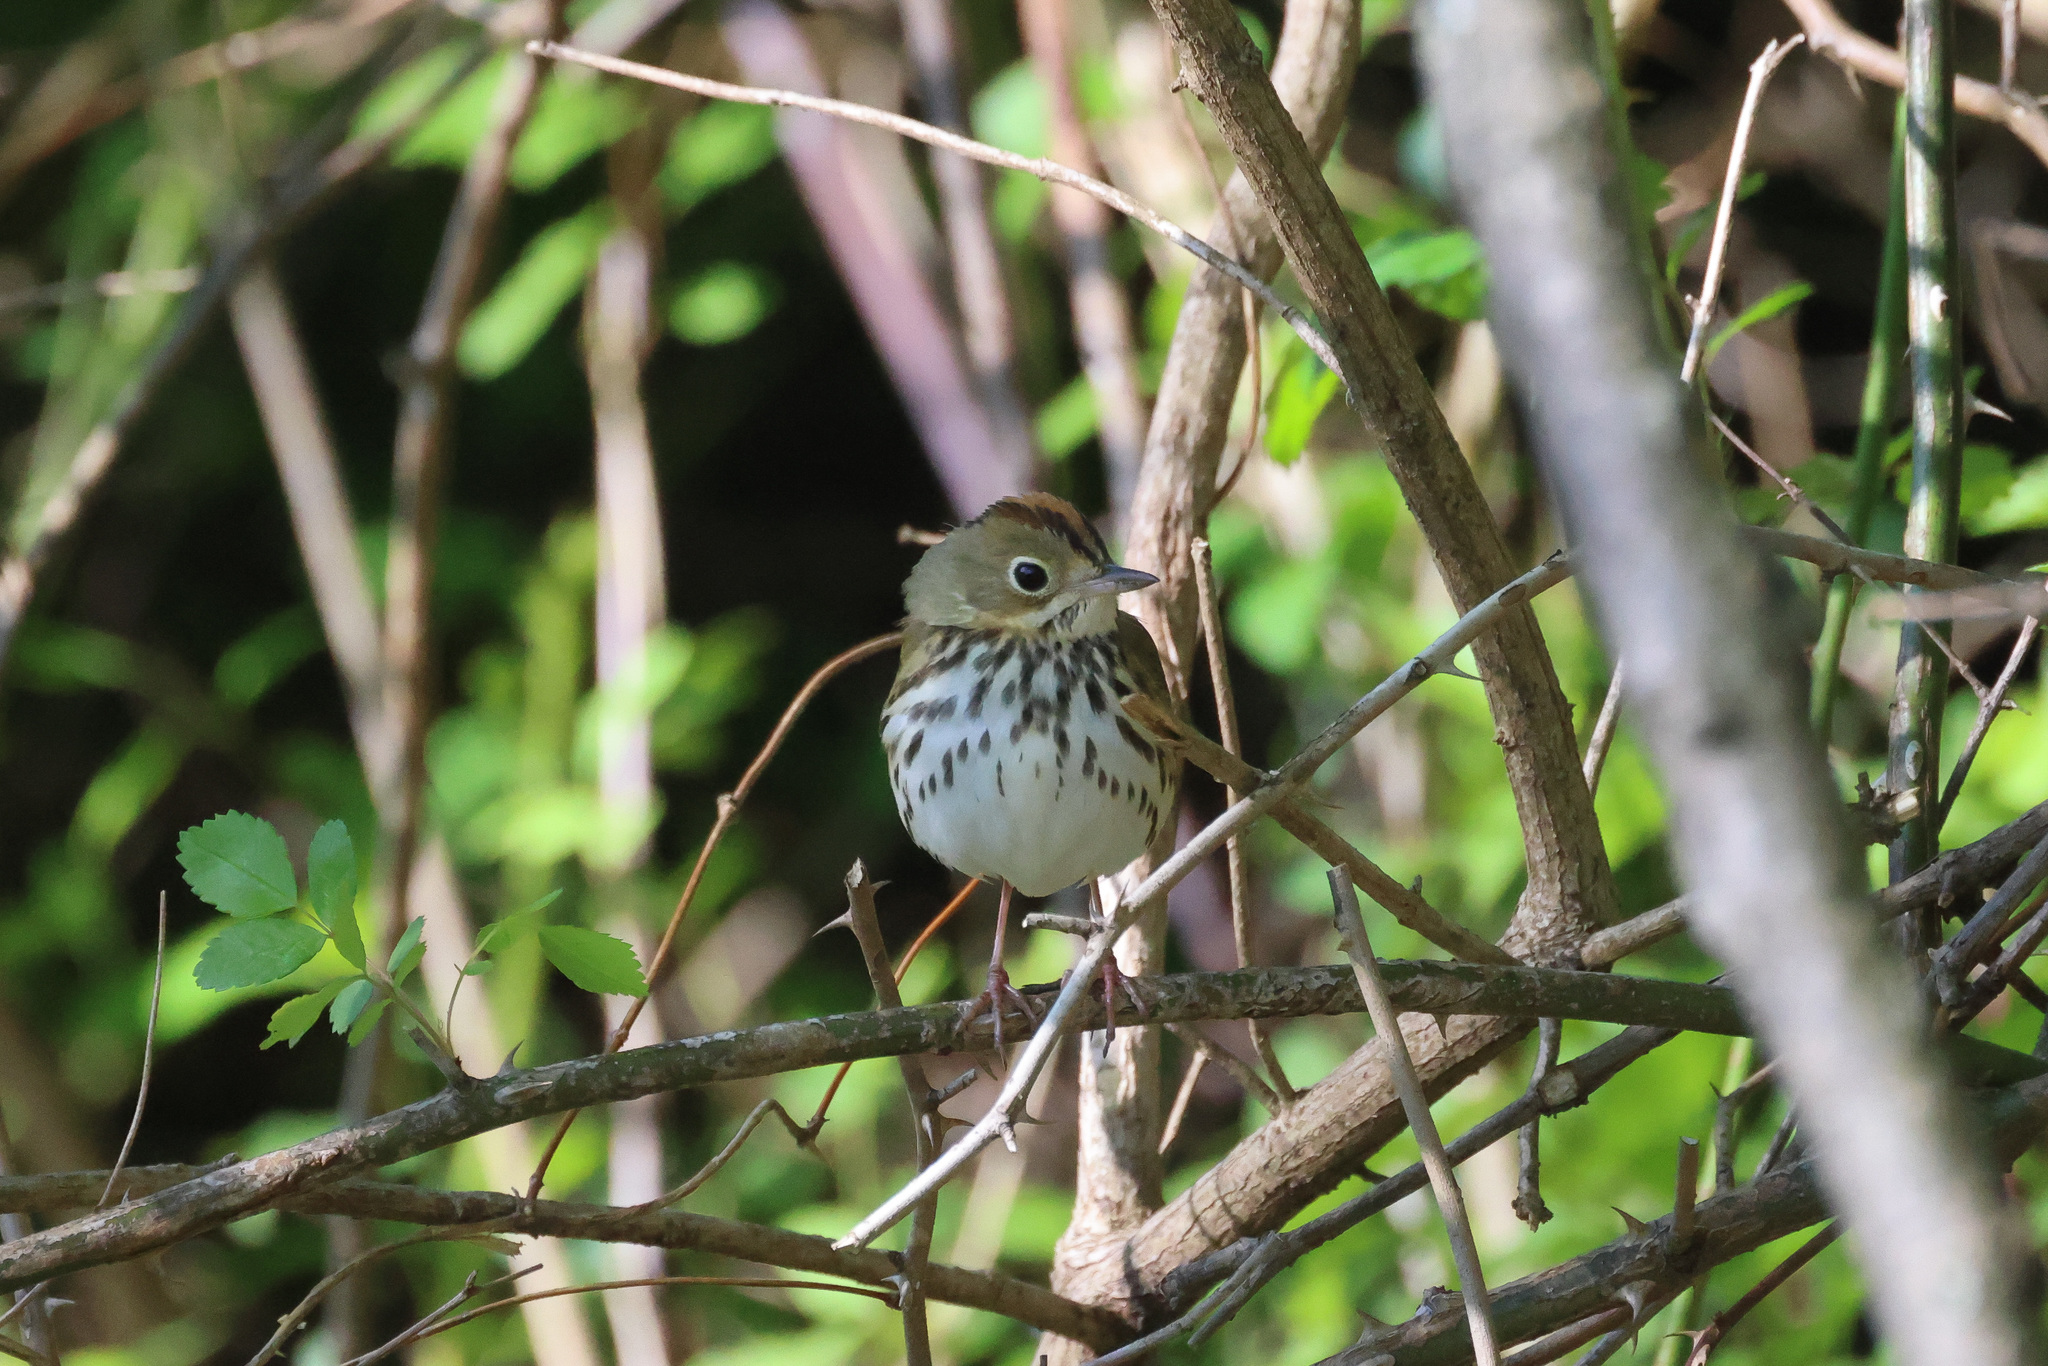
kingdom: Animalia
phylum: Chordata
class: Aves
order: Passeriformes
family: Parulidae
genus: Seiurus
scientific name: Seiurus aurocapilla
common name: Ovenbird
